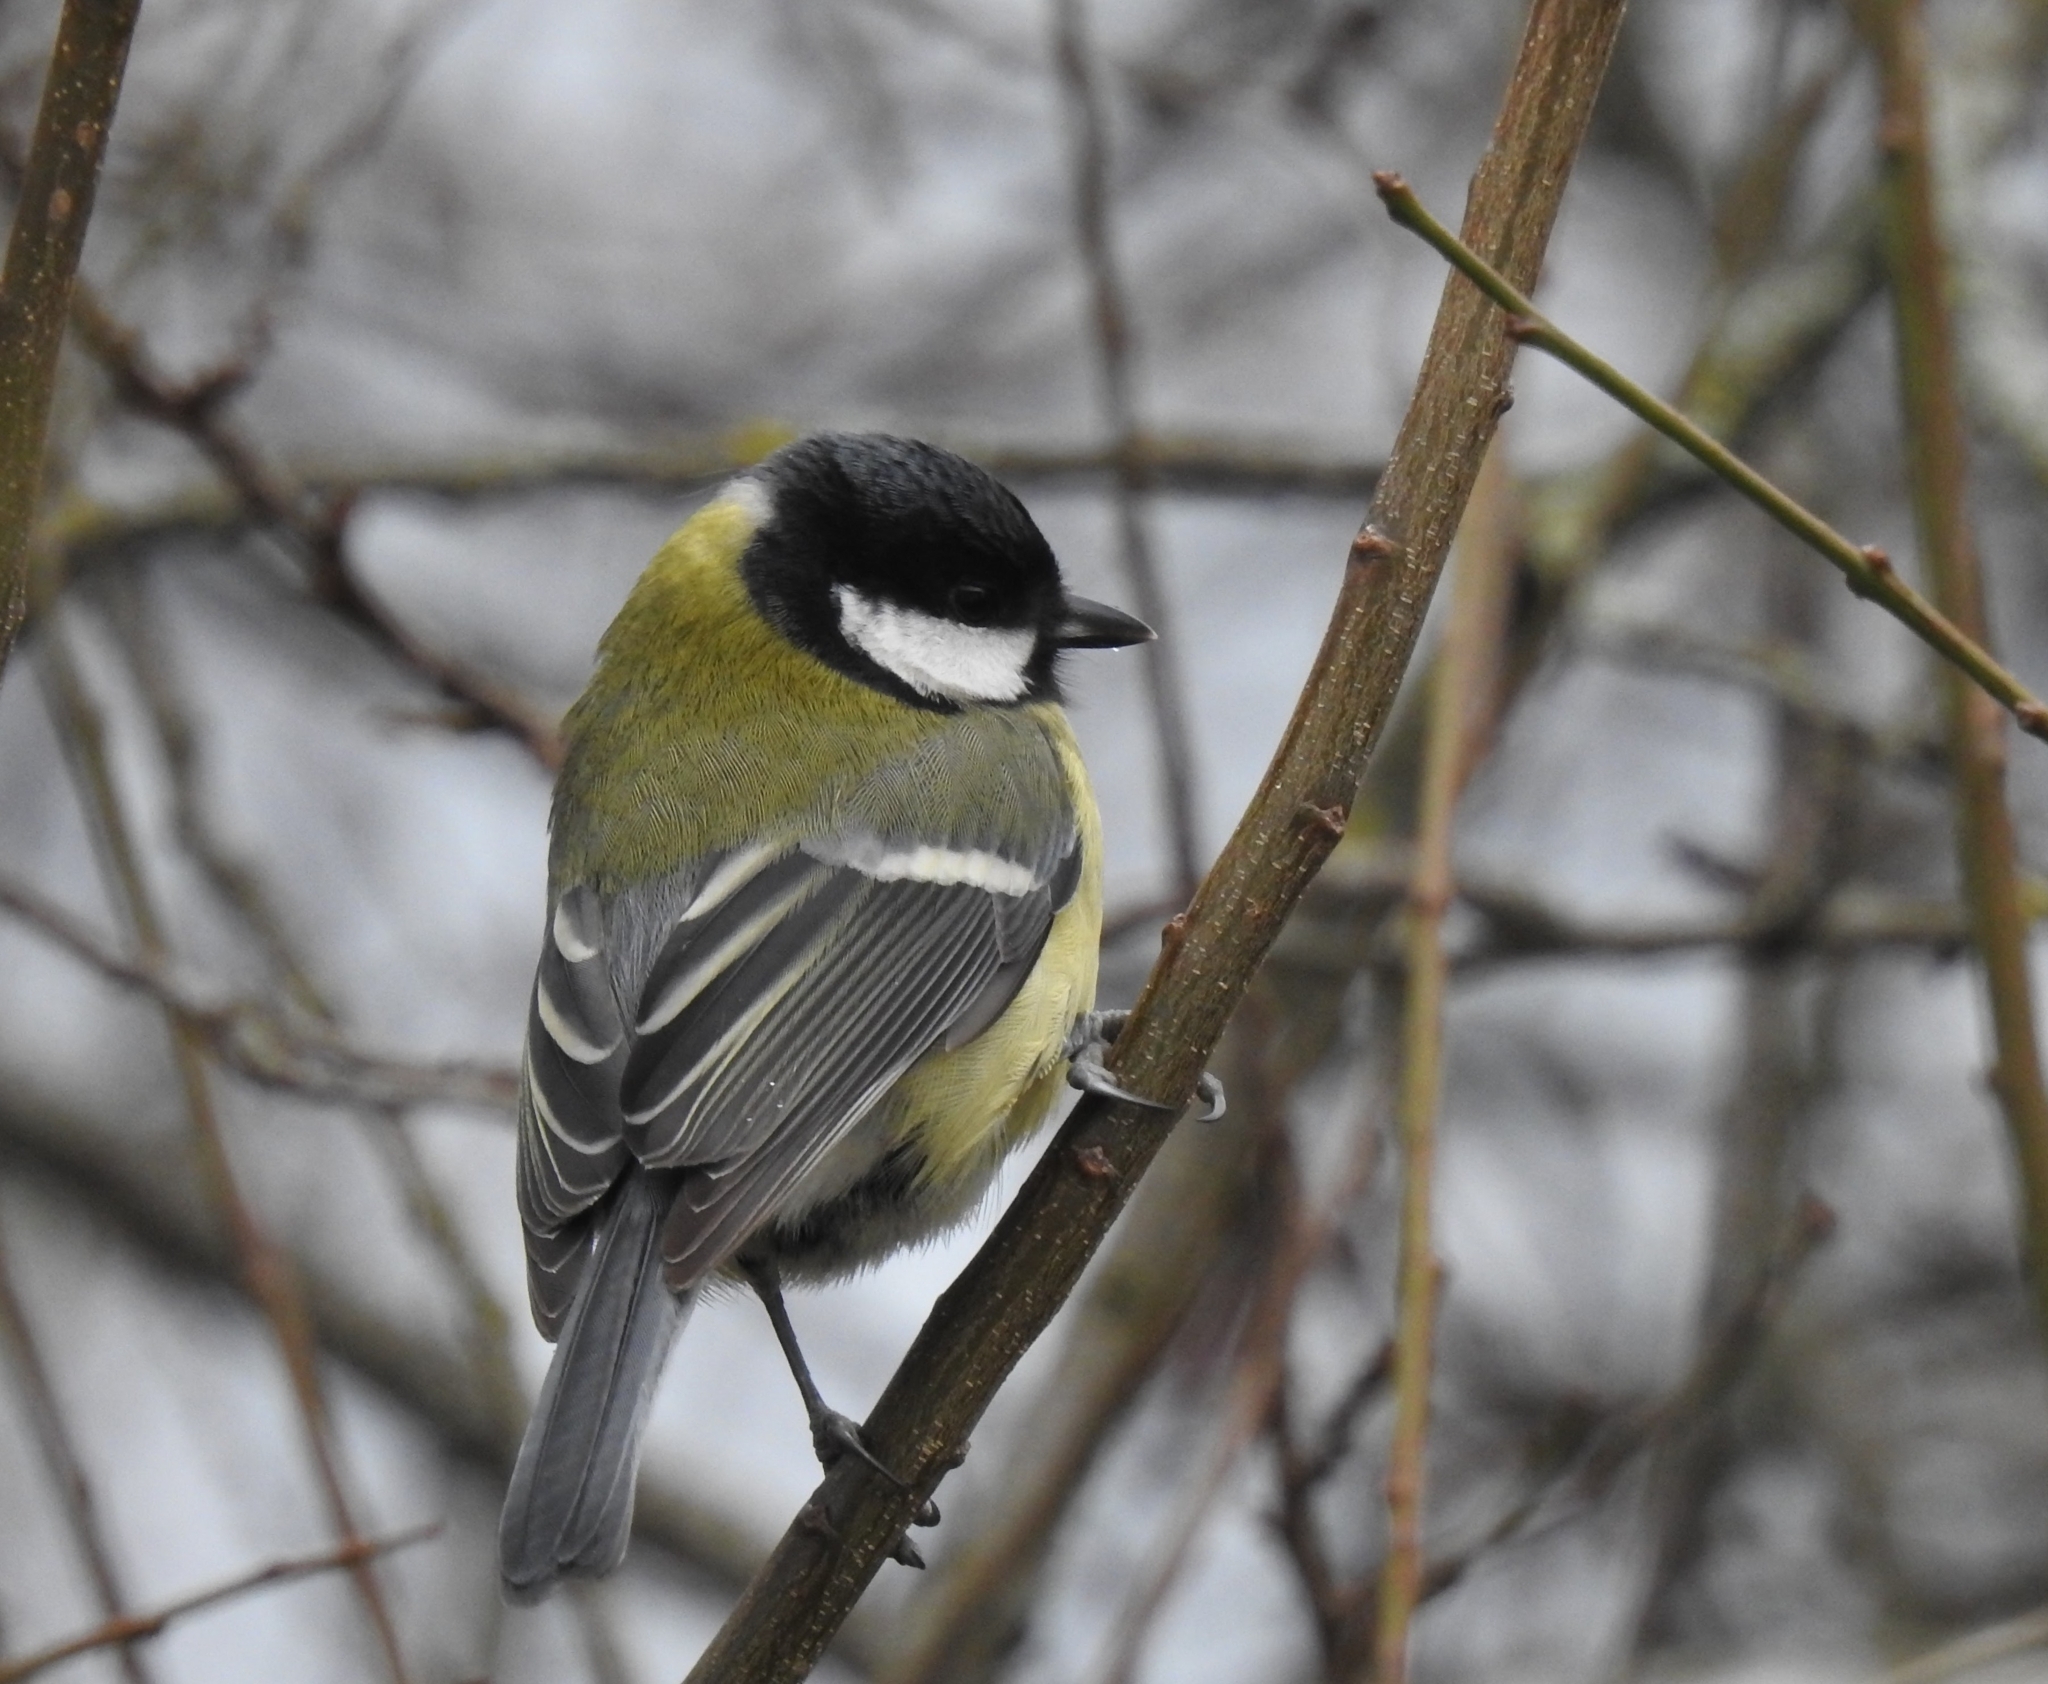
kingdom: Animalia
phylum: Chordata
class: Aves
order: Passeriformes
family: Paridae
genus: Parus
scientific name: Parus major
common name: Great tit
